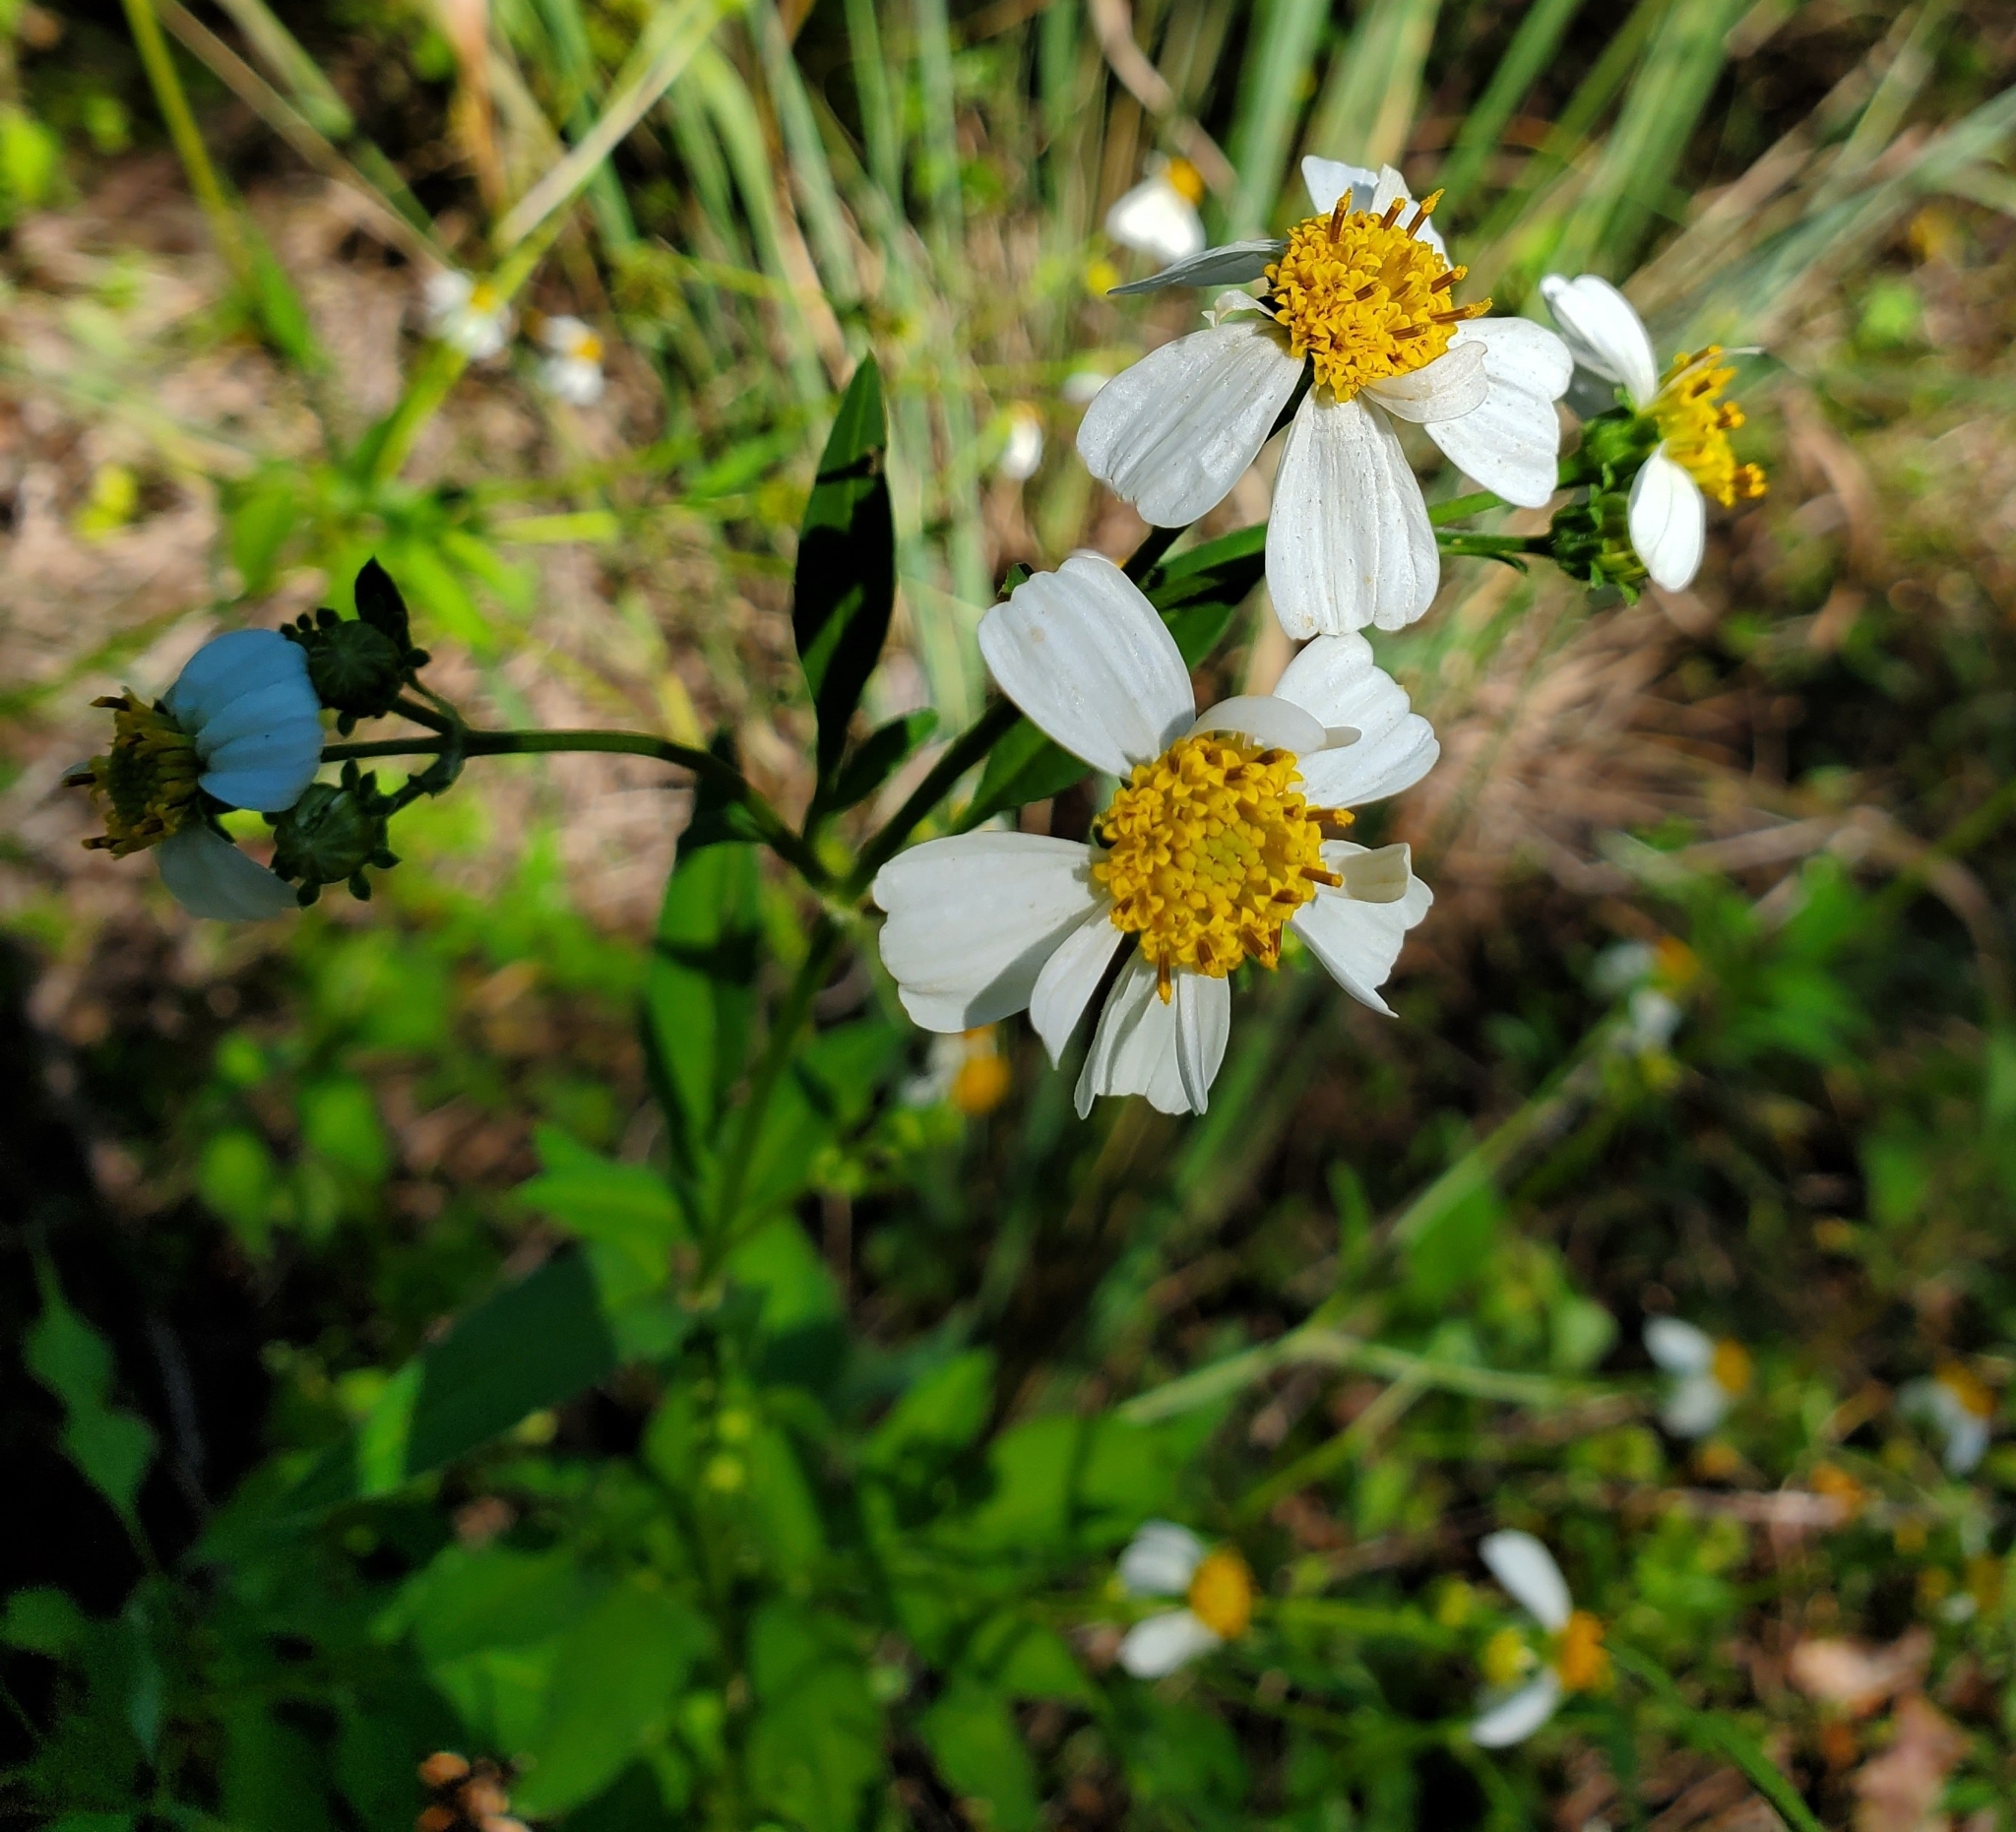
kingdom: Plantae
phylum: Tracheophyta
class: Magnoliopsida
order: Asterales
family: Asteraceae
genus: Bidens
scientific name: Bidens alba
